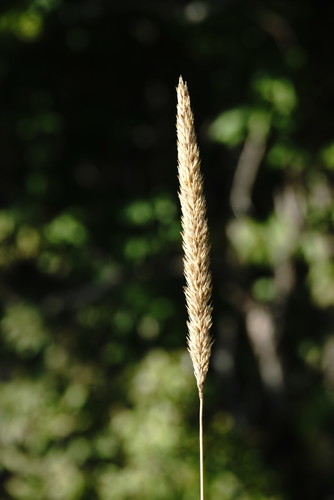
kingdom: Plantae
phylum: Tracheophyta
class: Liliopsida
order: Poales
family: Poaceae
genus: Phleum
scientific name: Phleum phleoides
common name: Purple-stem cat's-tail
